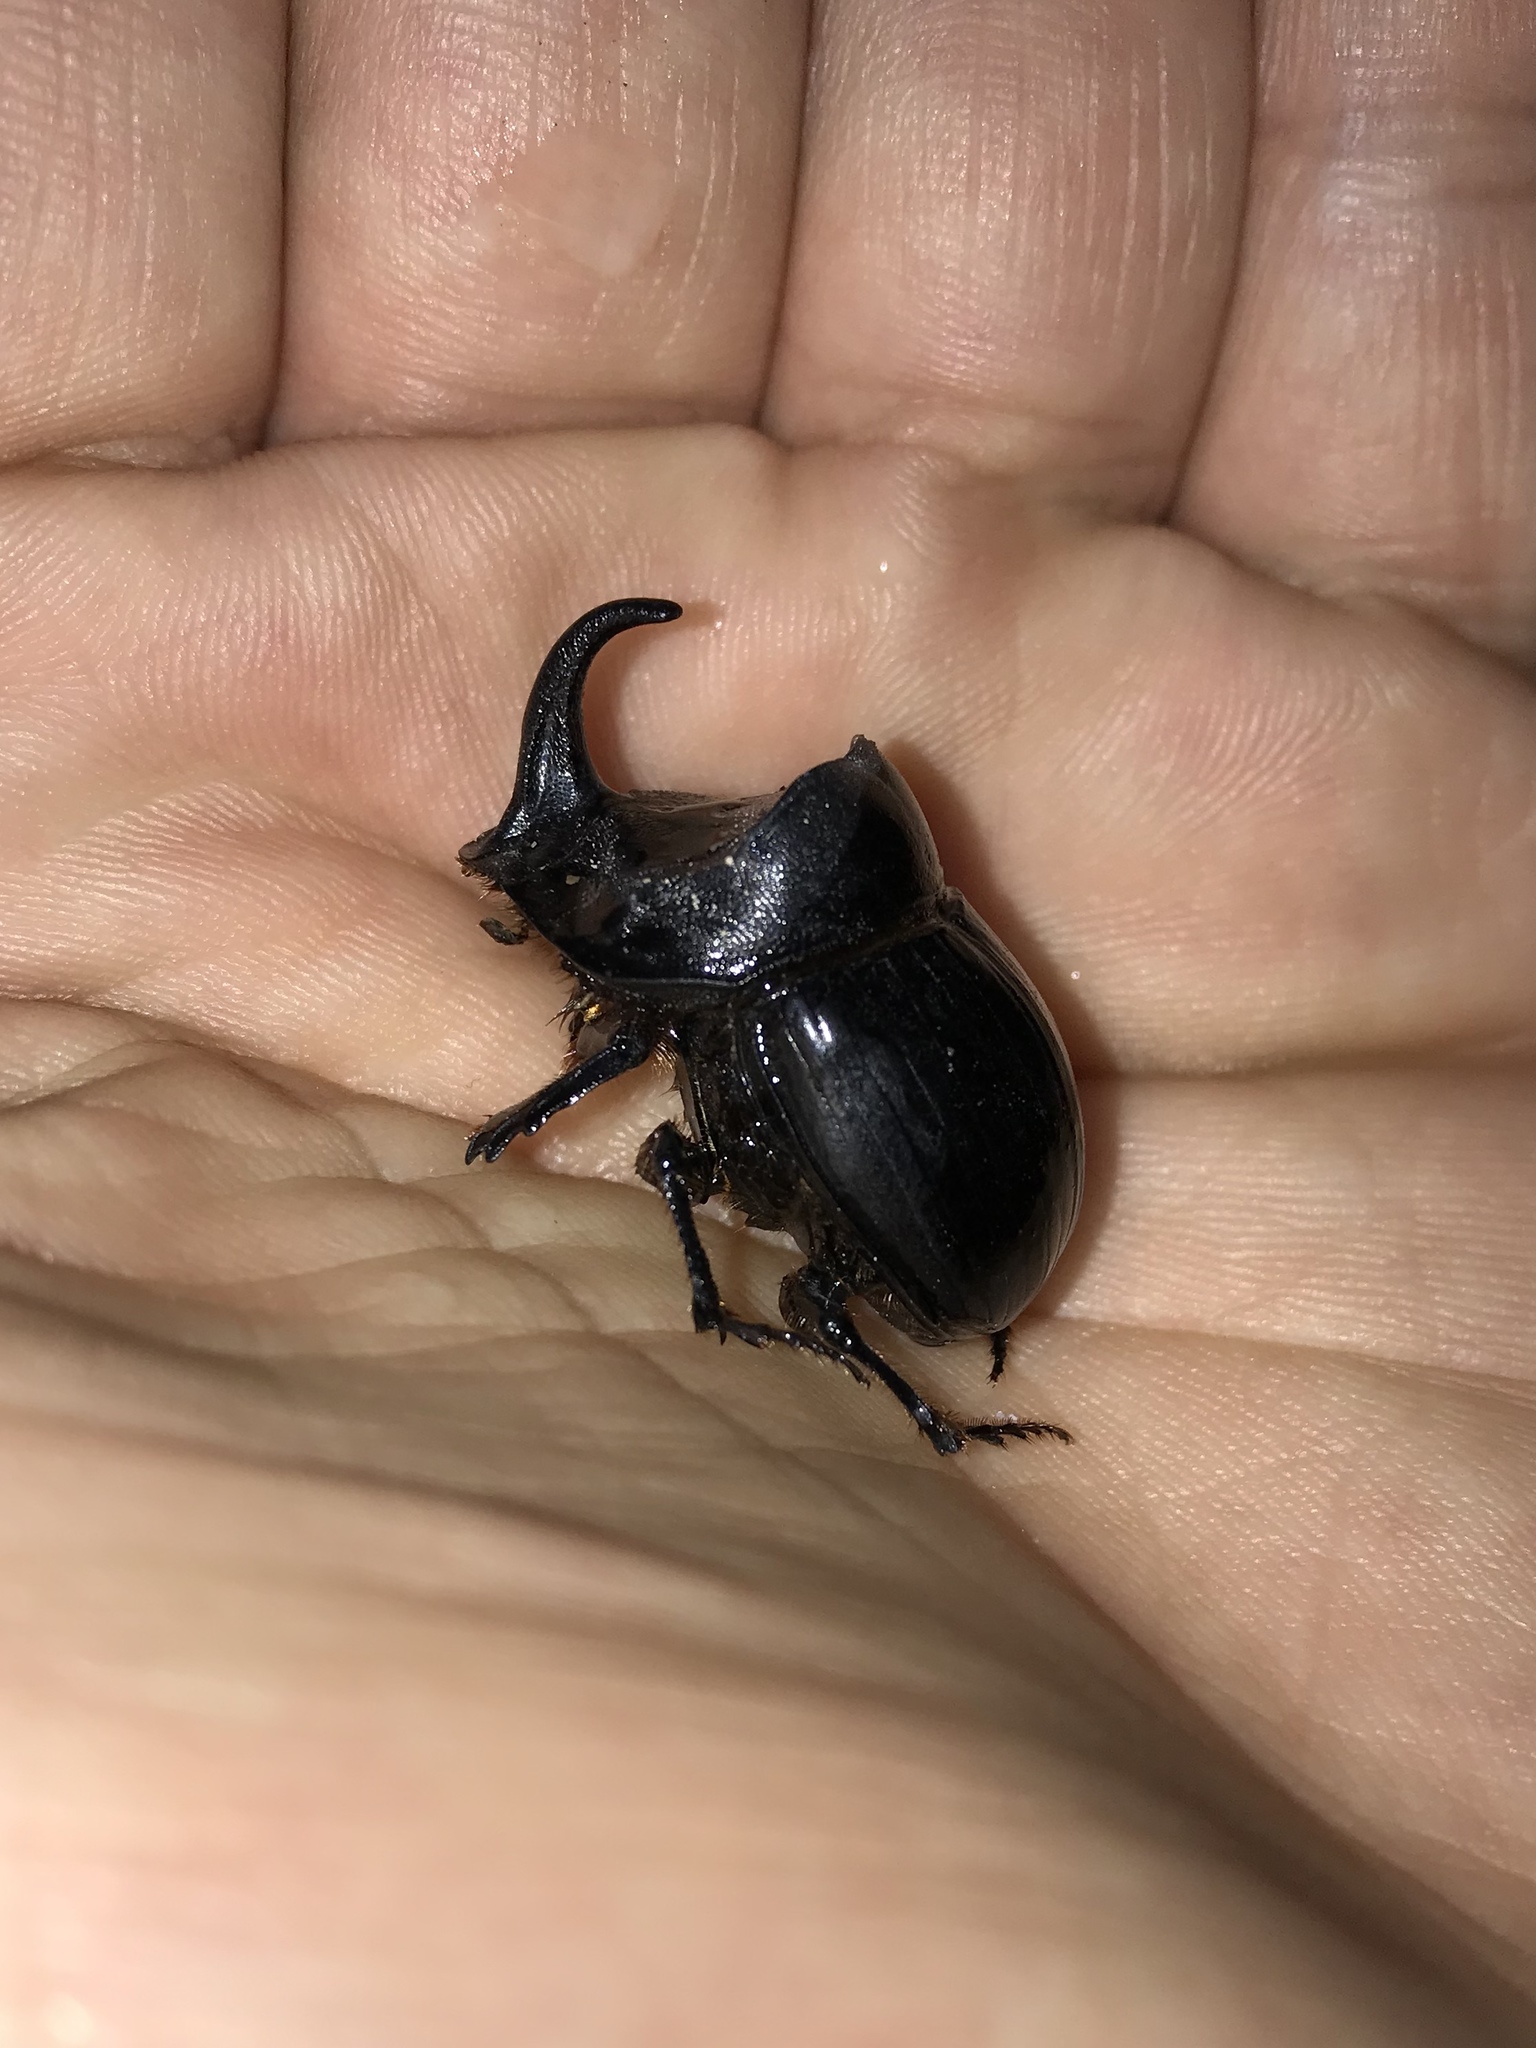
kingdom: Animalia
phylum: Arthropoda
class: Insecta
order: Coleoptera
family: Scarabaeidae
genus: Copris
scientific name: Copris hispanus
